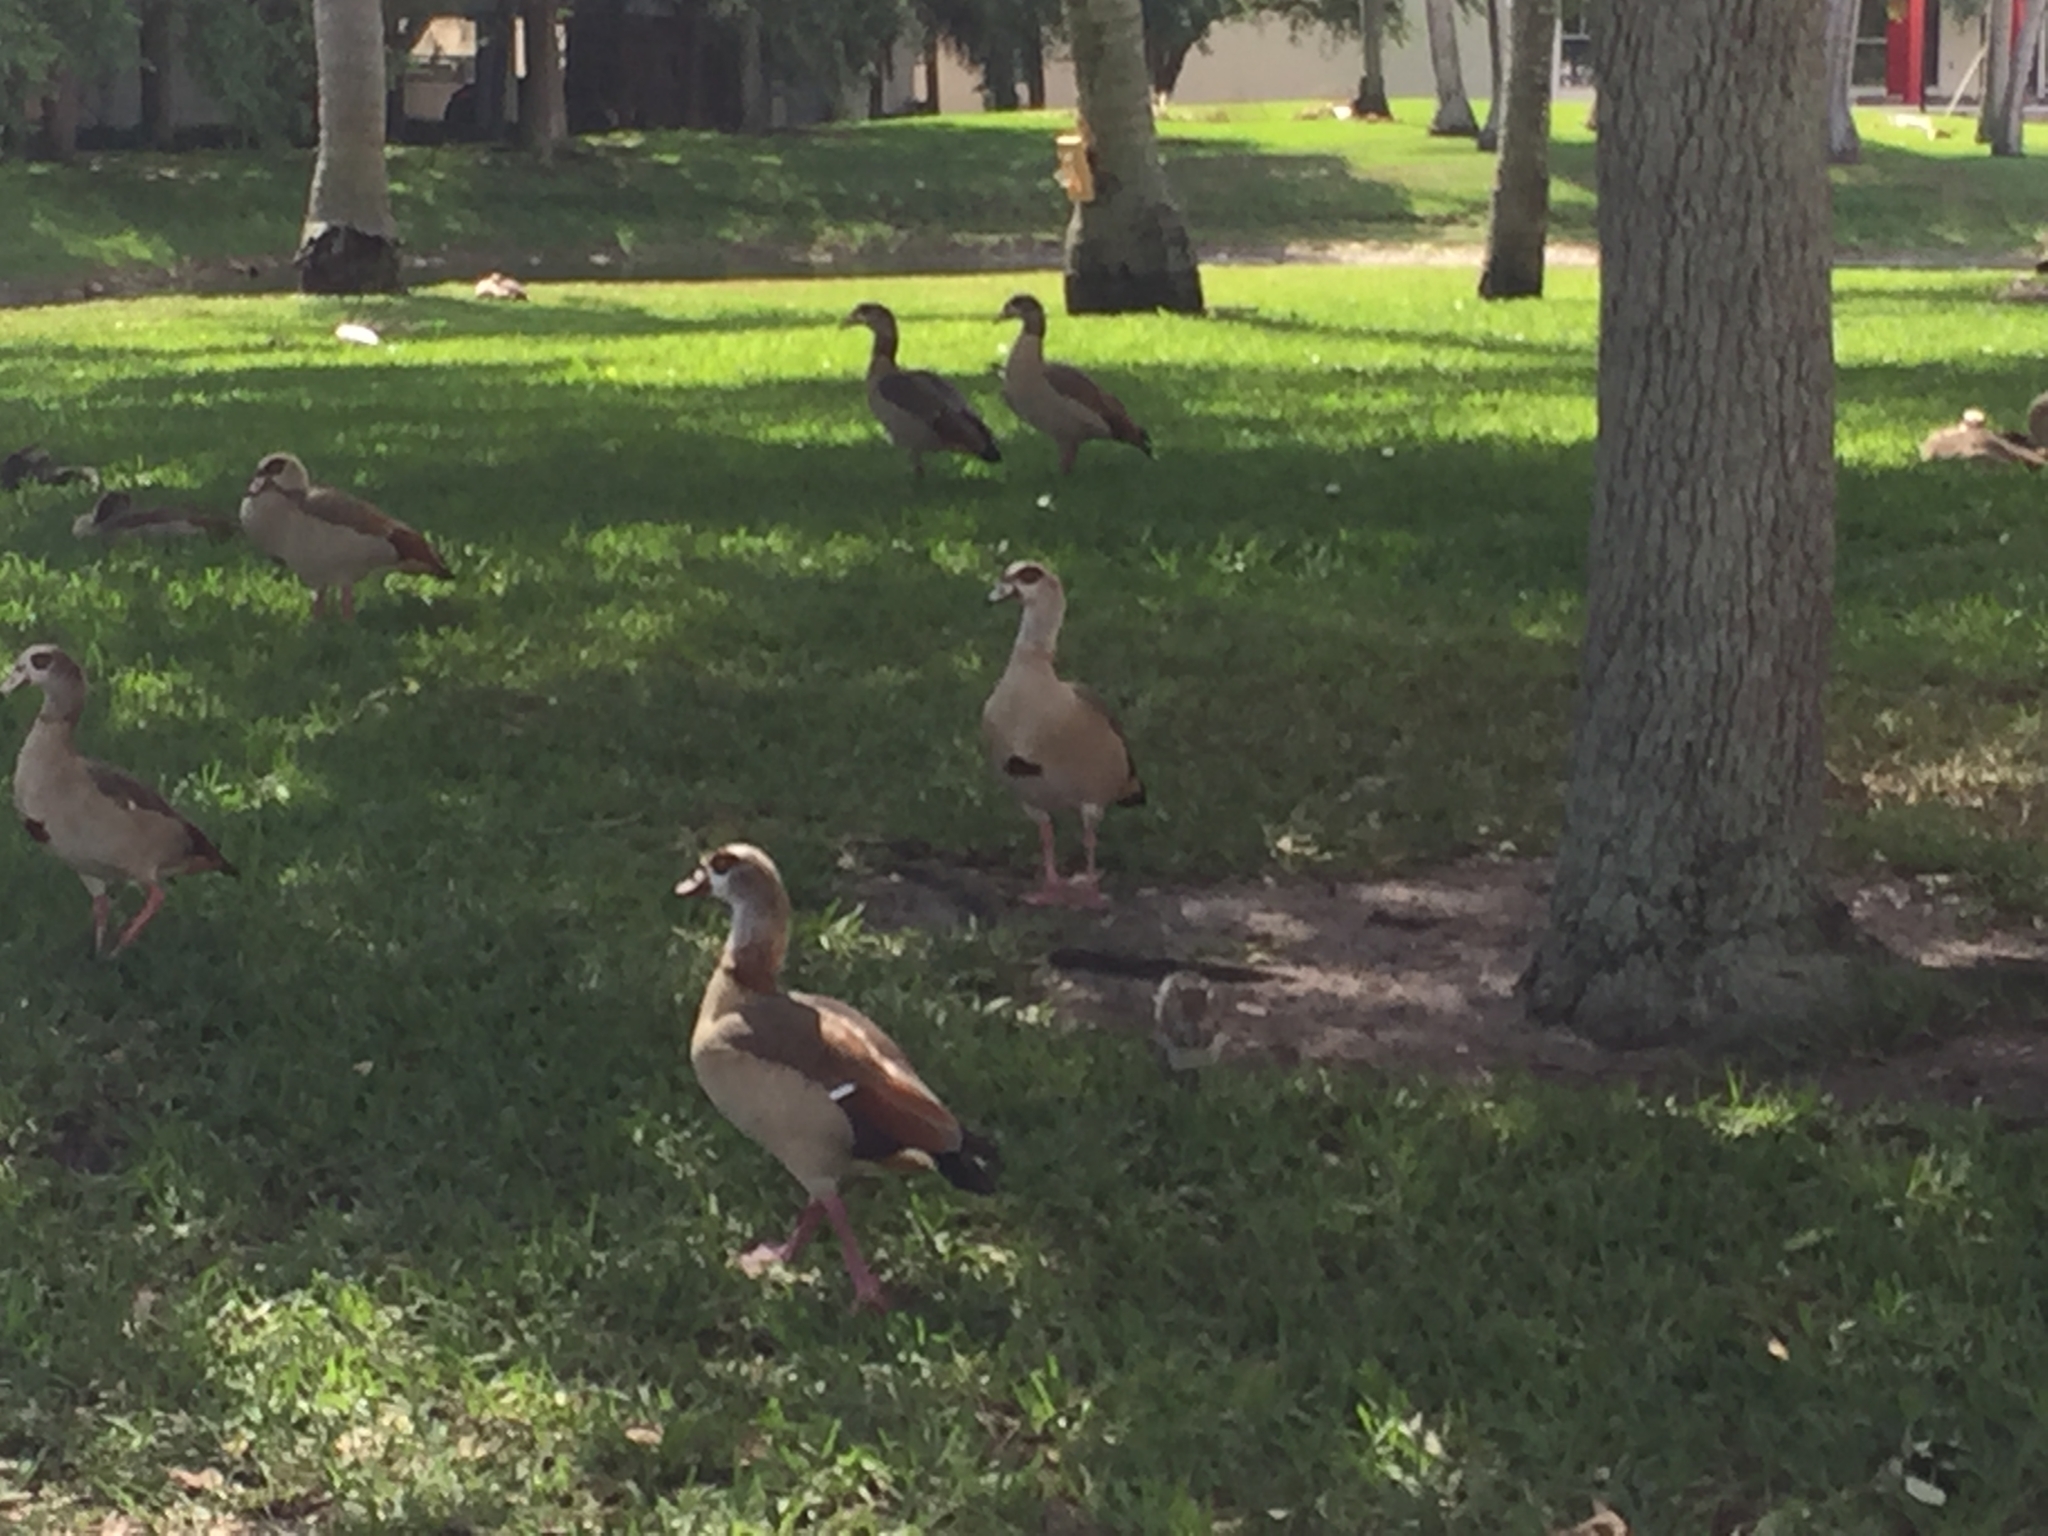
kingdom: Animalia
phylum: Chordata
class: Aves
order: Anseriformes
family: Anatidae
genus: Alopochen
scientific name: Alopochen aegyptiaca
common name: Egyptian goose
